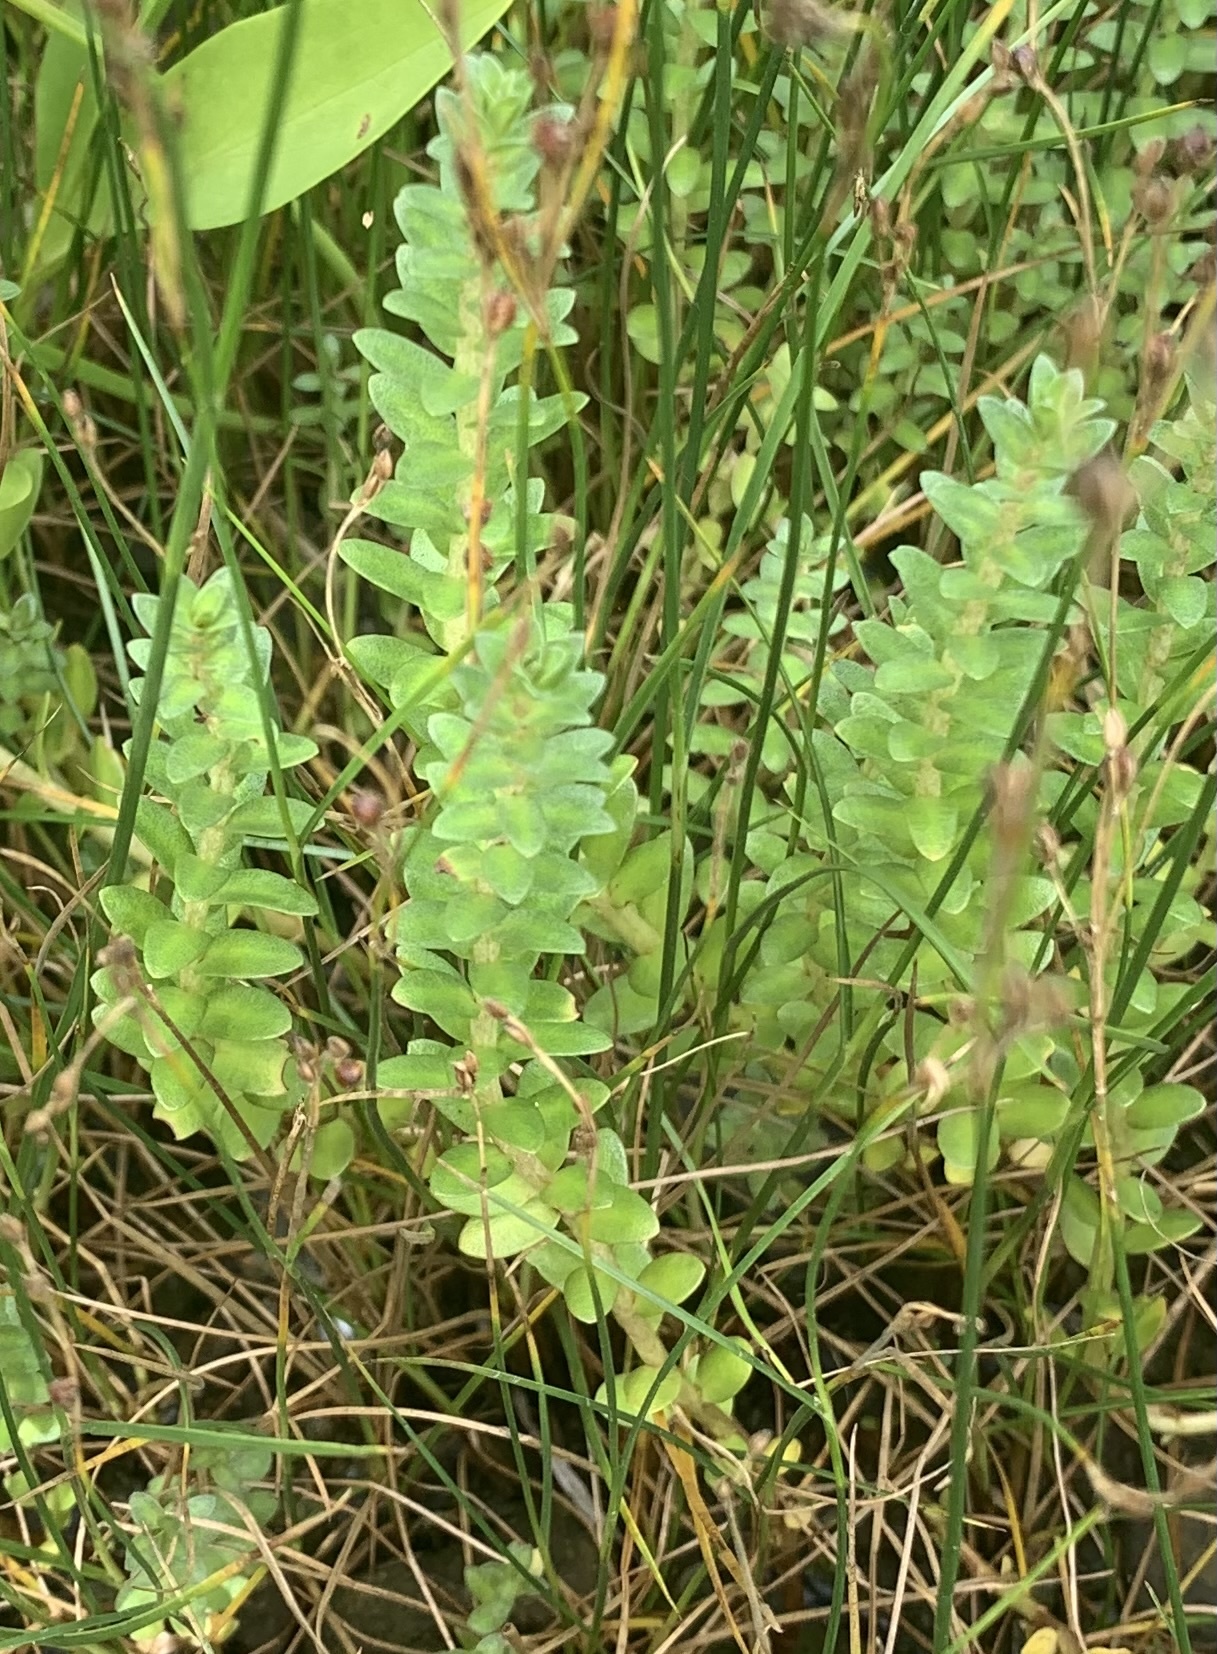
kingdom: Plantae
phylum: Tracheophyta
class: Magnoliopsida
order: Ericales
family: Primulaceae
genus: Lysimachia
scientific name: Lysimachia maritima
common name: Sea milkwort
